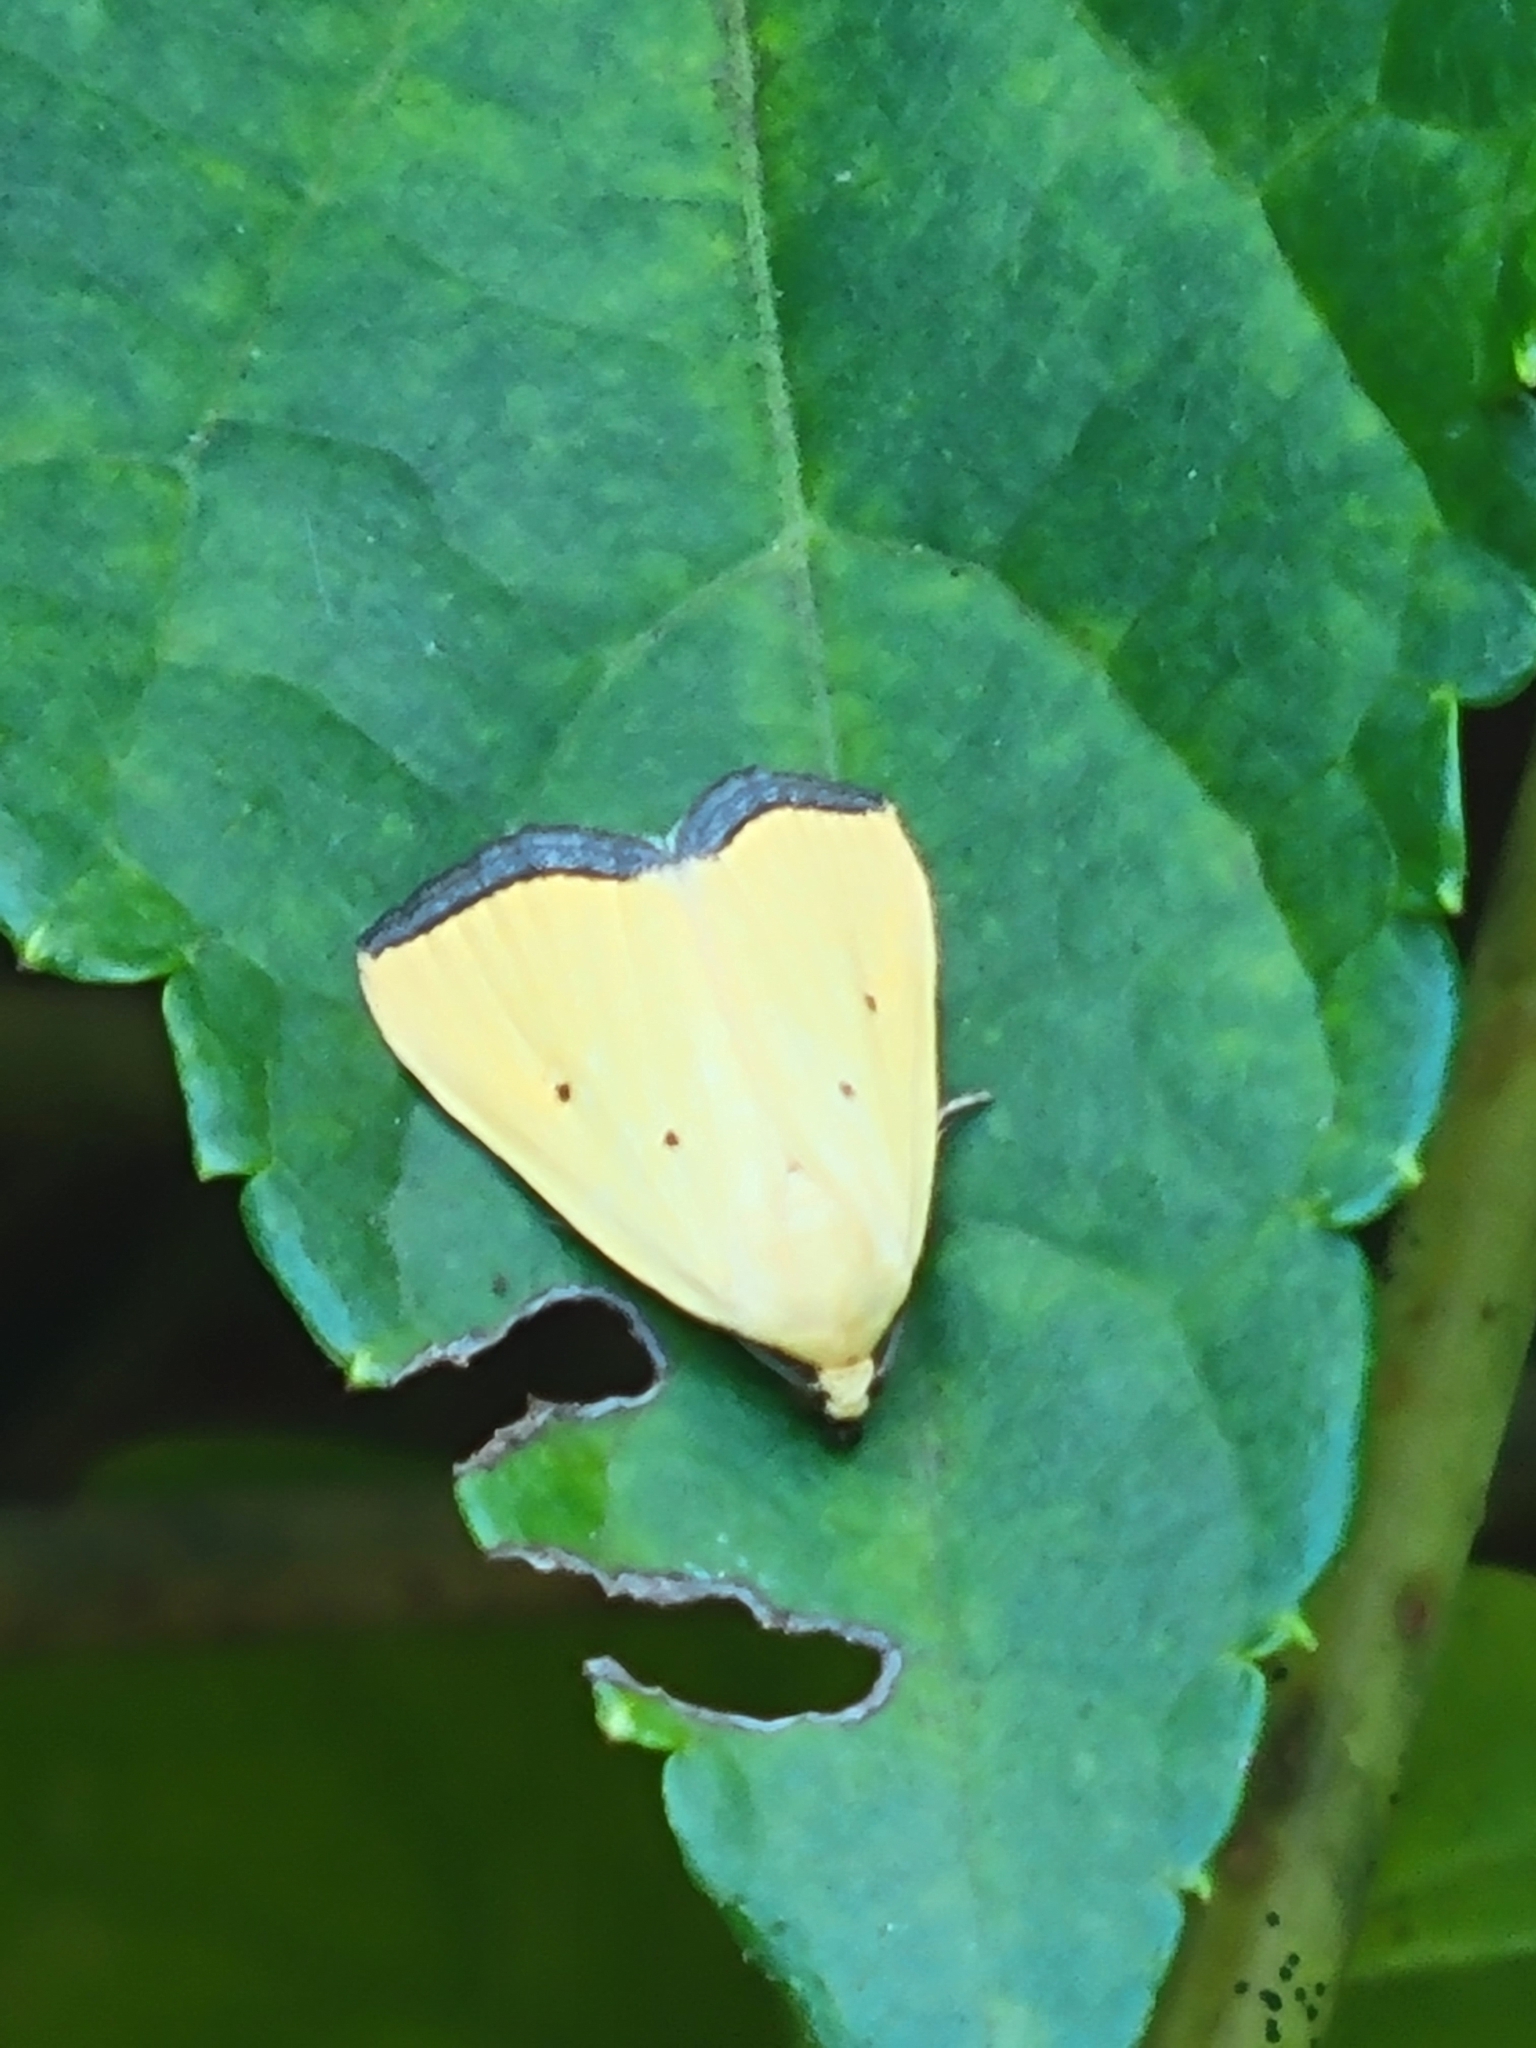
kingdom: Animalia
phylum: Arthropoda
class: Insecta
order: Lepidoptera
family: Noctuidae
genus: Marimatha
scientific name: Marimatha nigrofimbria
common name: Black-bordered lemon moth
